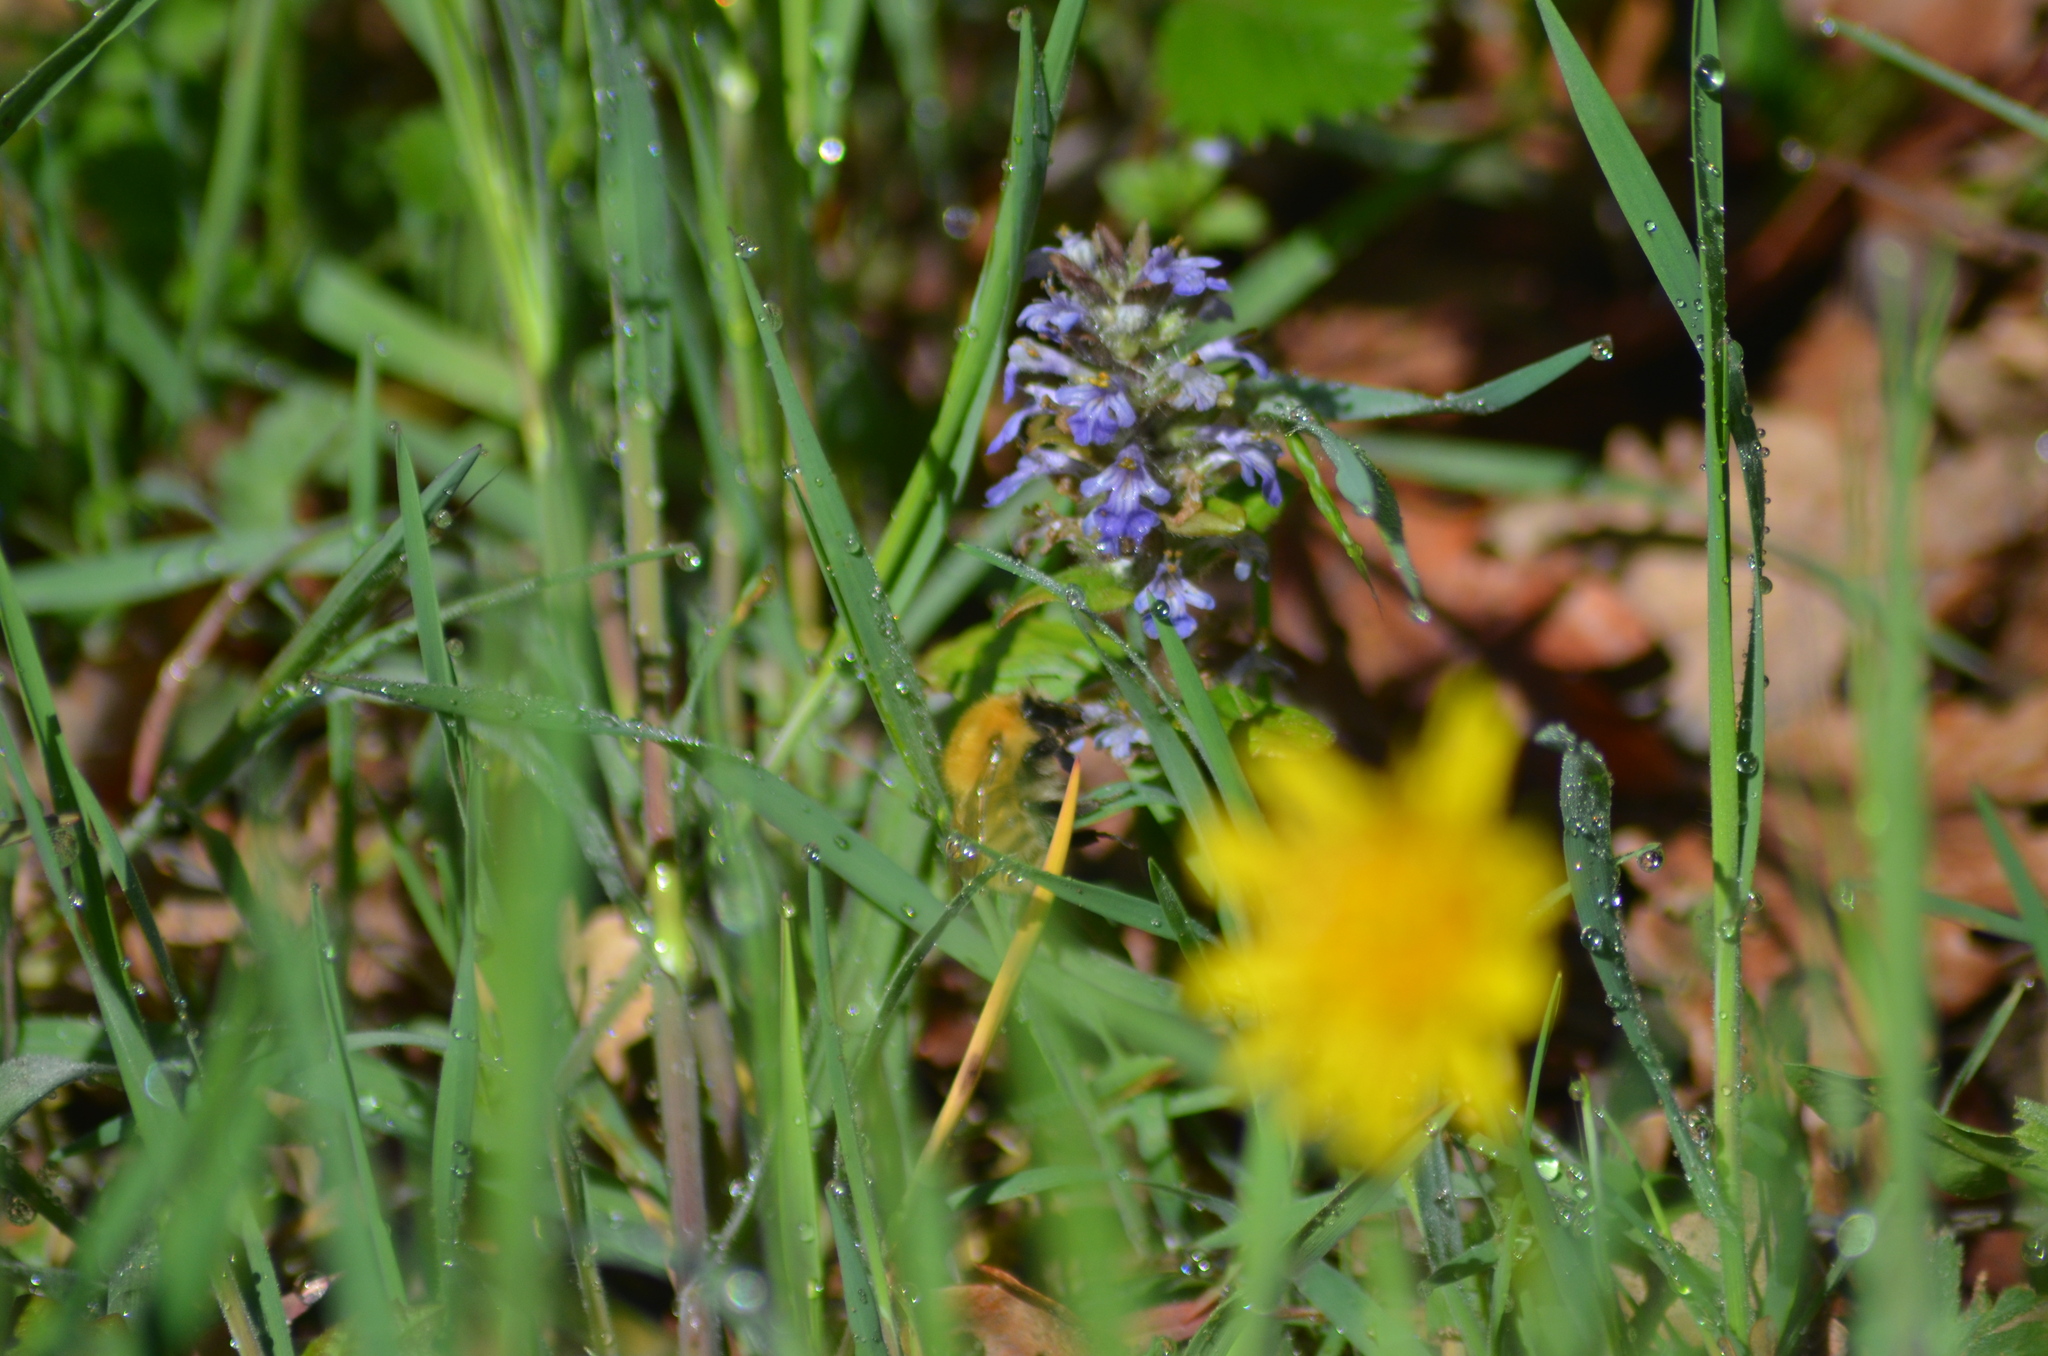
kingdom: Animalia
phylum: Arthropoda
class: Insecta
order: Hymenoptera
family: Apidae
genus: Bombus
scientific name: Bombus pascuorum
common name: Common carder bee
